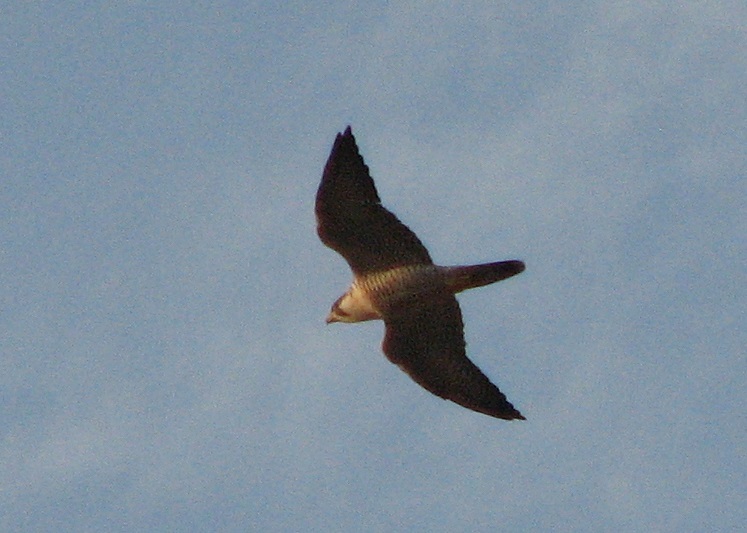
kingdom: Animalia
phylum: Chordata
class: Aves
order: Falconiformes
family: Falconidae
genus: Falco
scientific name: Falco peregrinus
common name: Peregrine falcon
